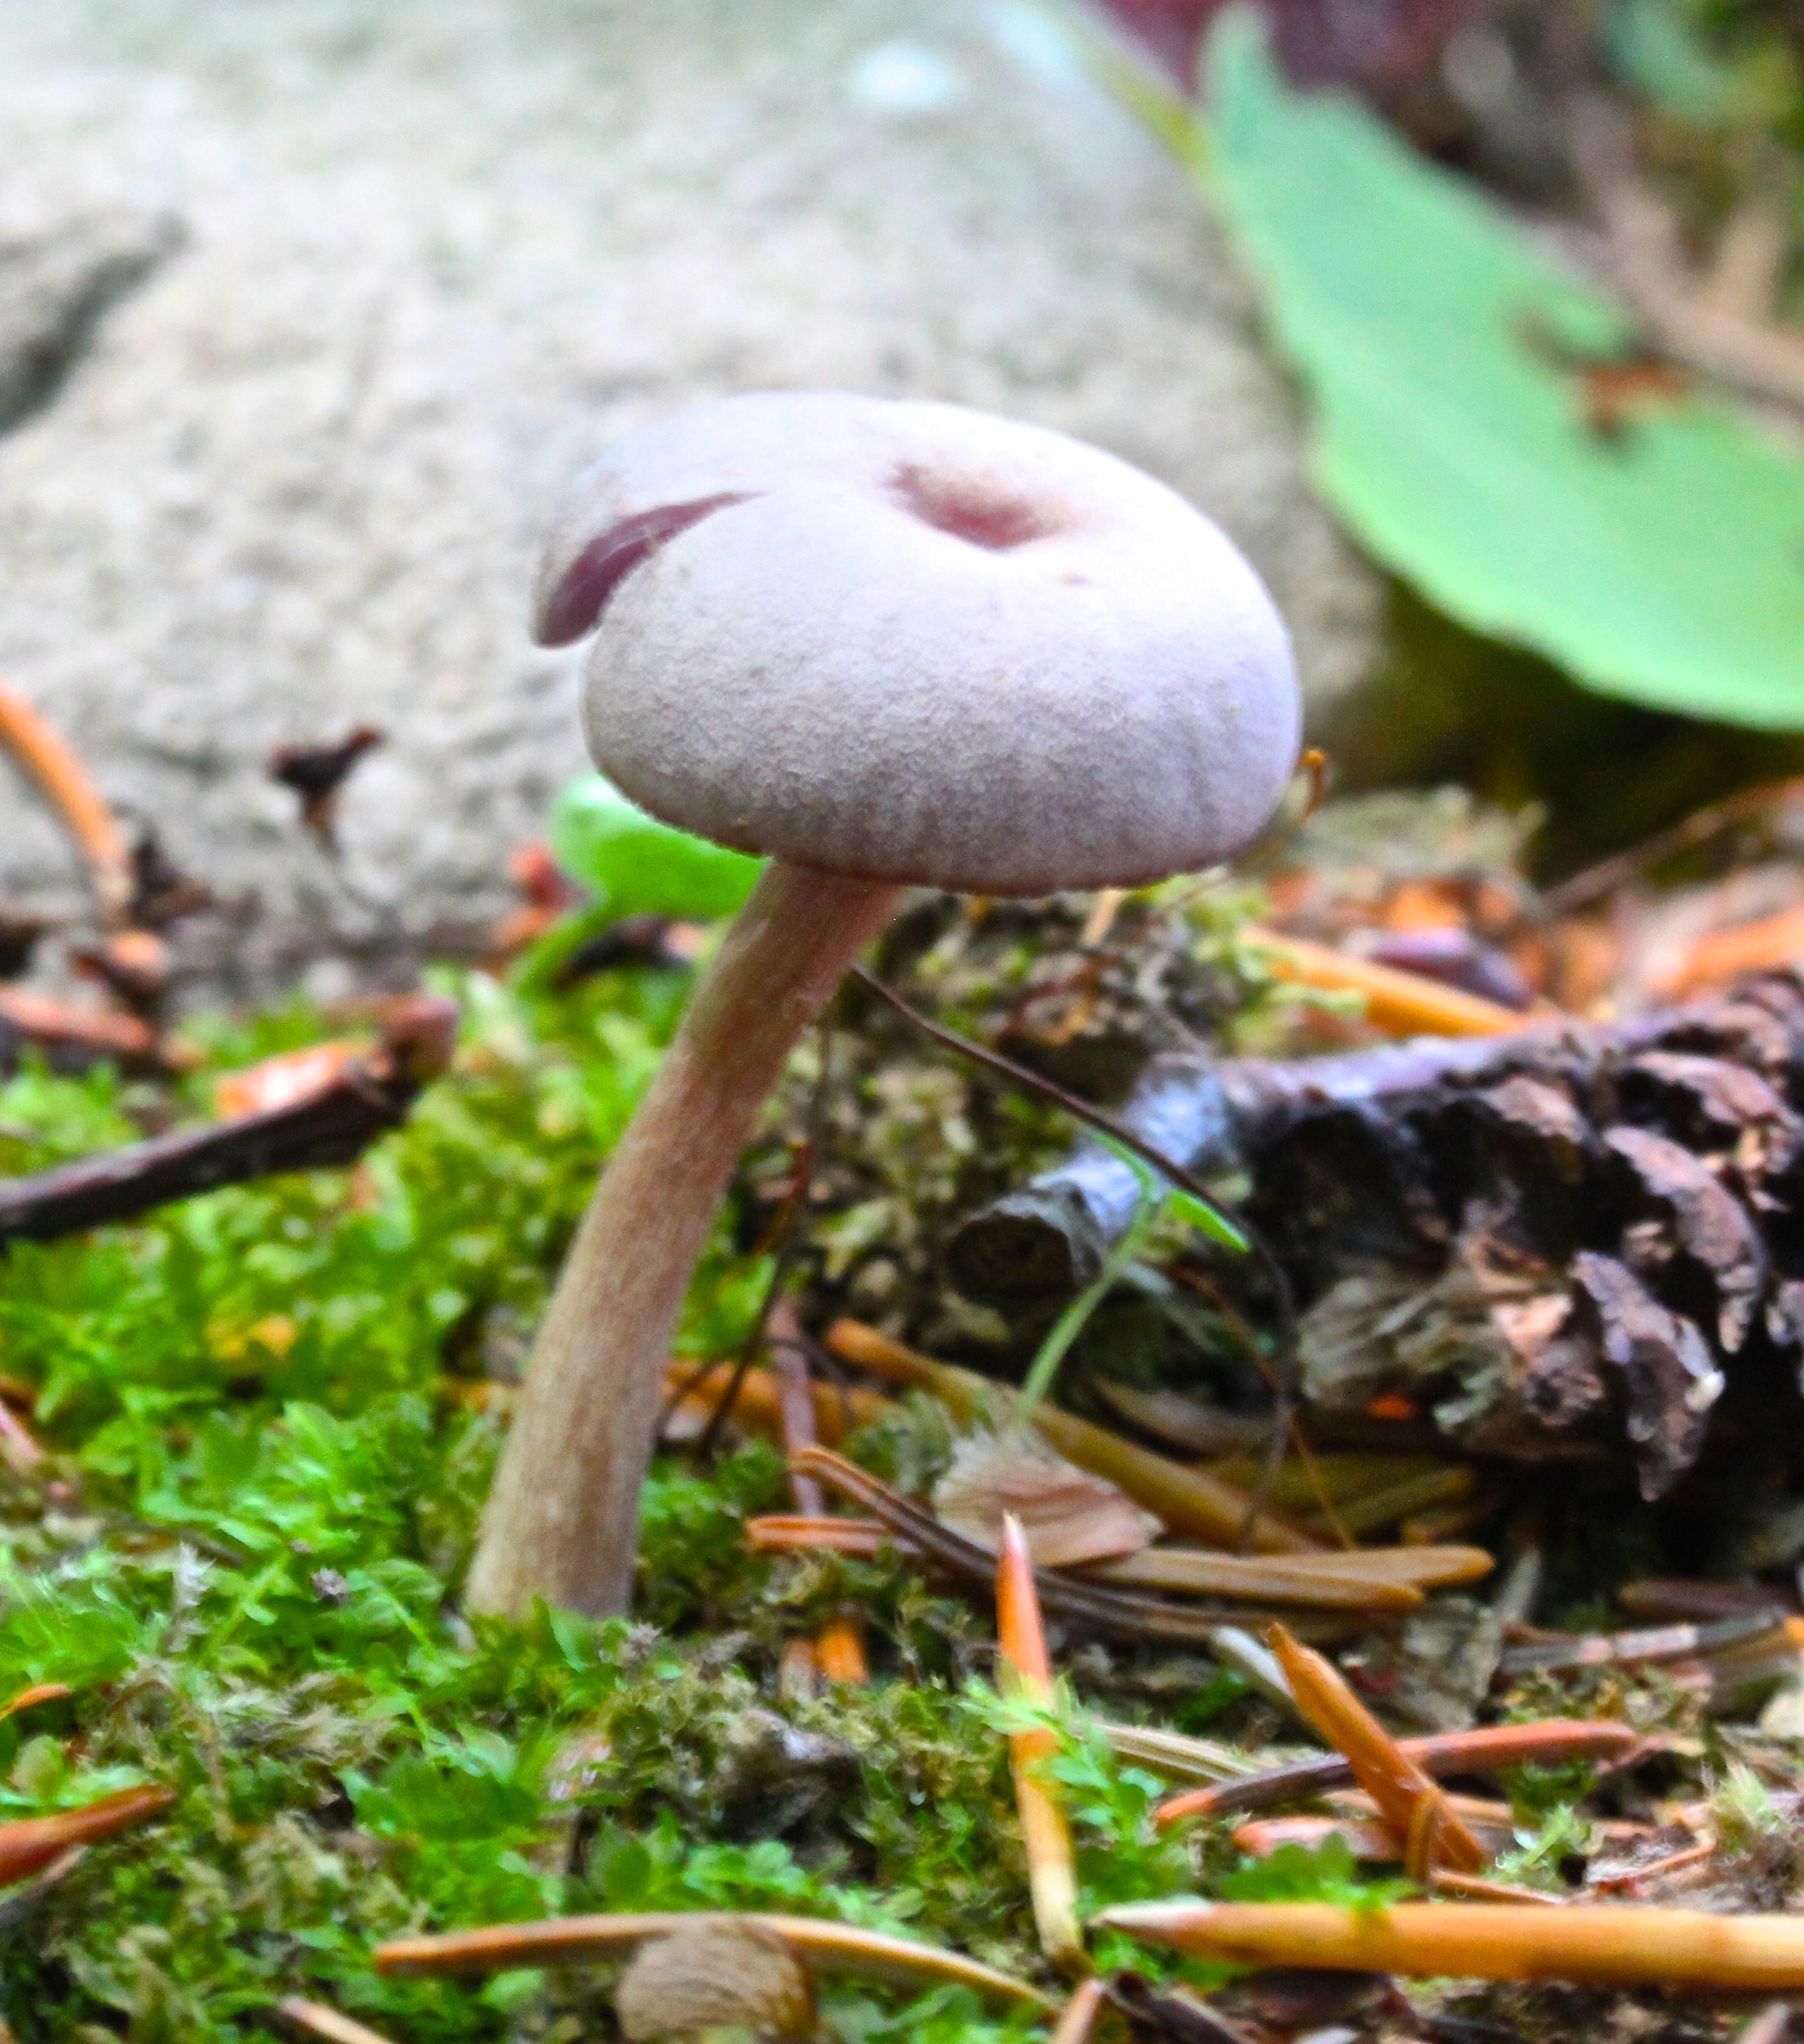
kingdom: Fungi
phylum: Basidiomycota
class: Agaricomycetes
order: Agaricales
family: Hydnangiaceae
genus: Laccaria
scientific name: Laccaria amethystina
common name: Amethyst deceiver
